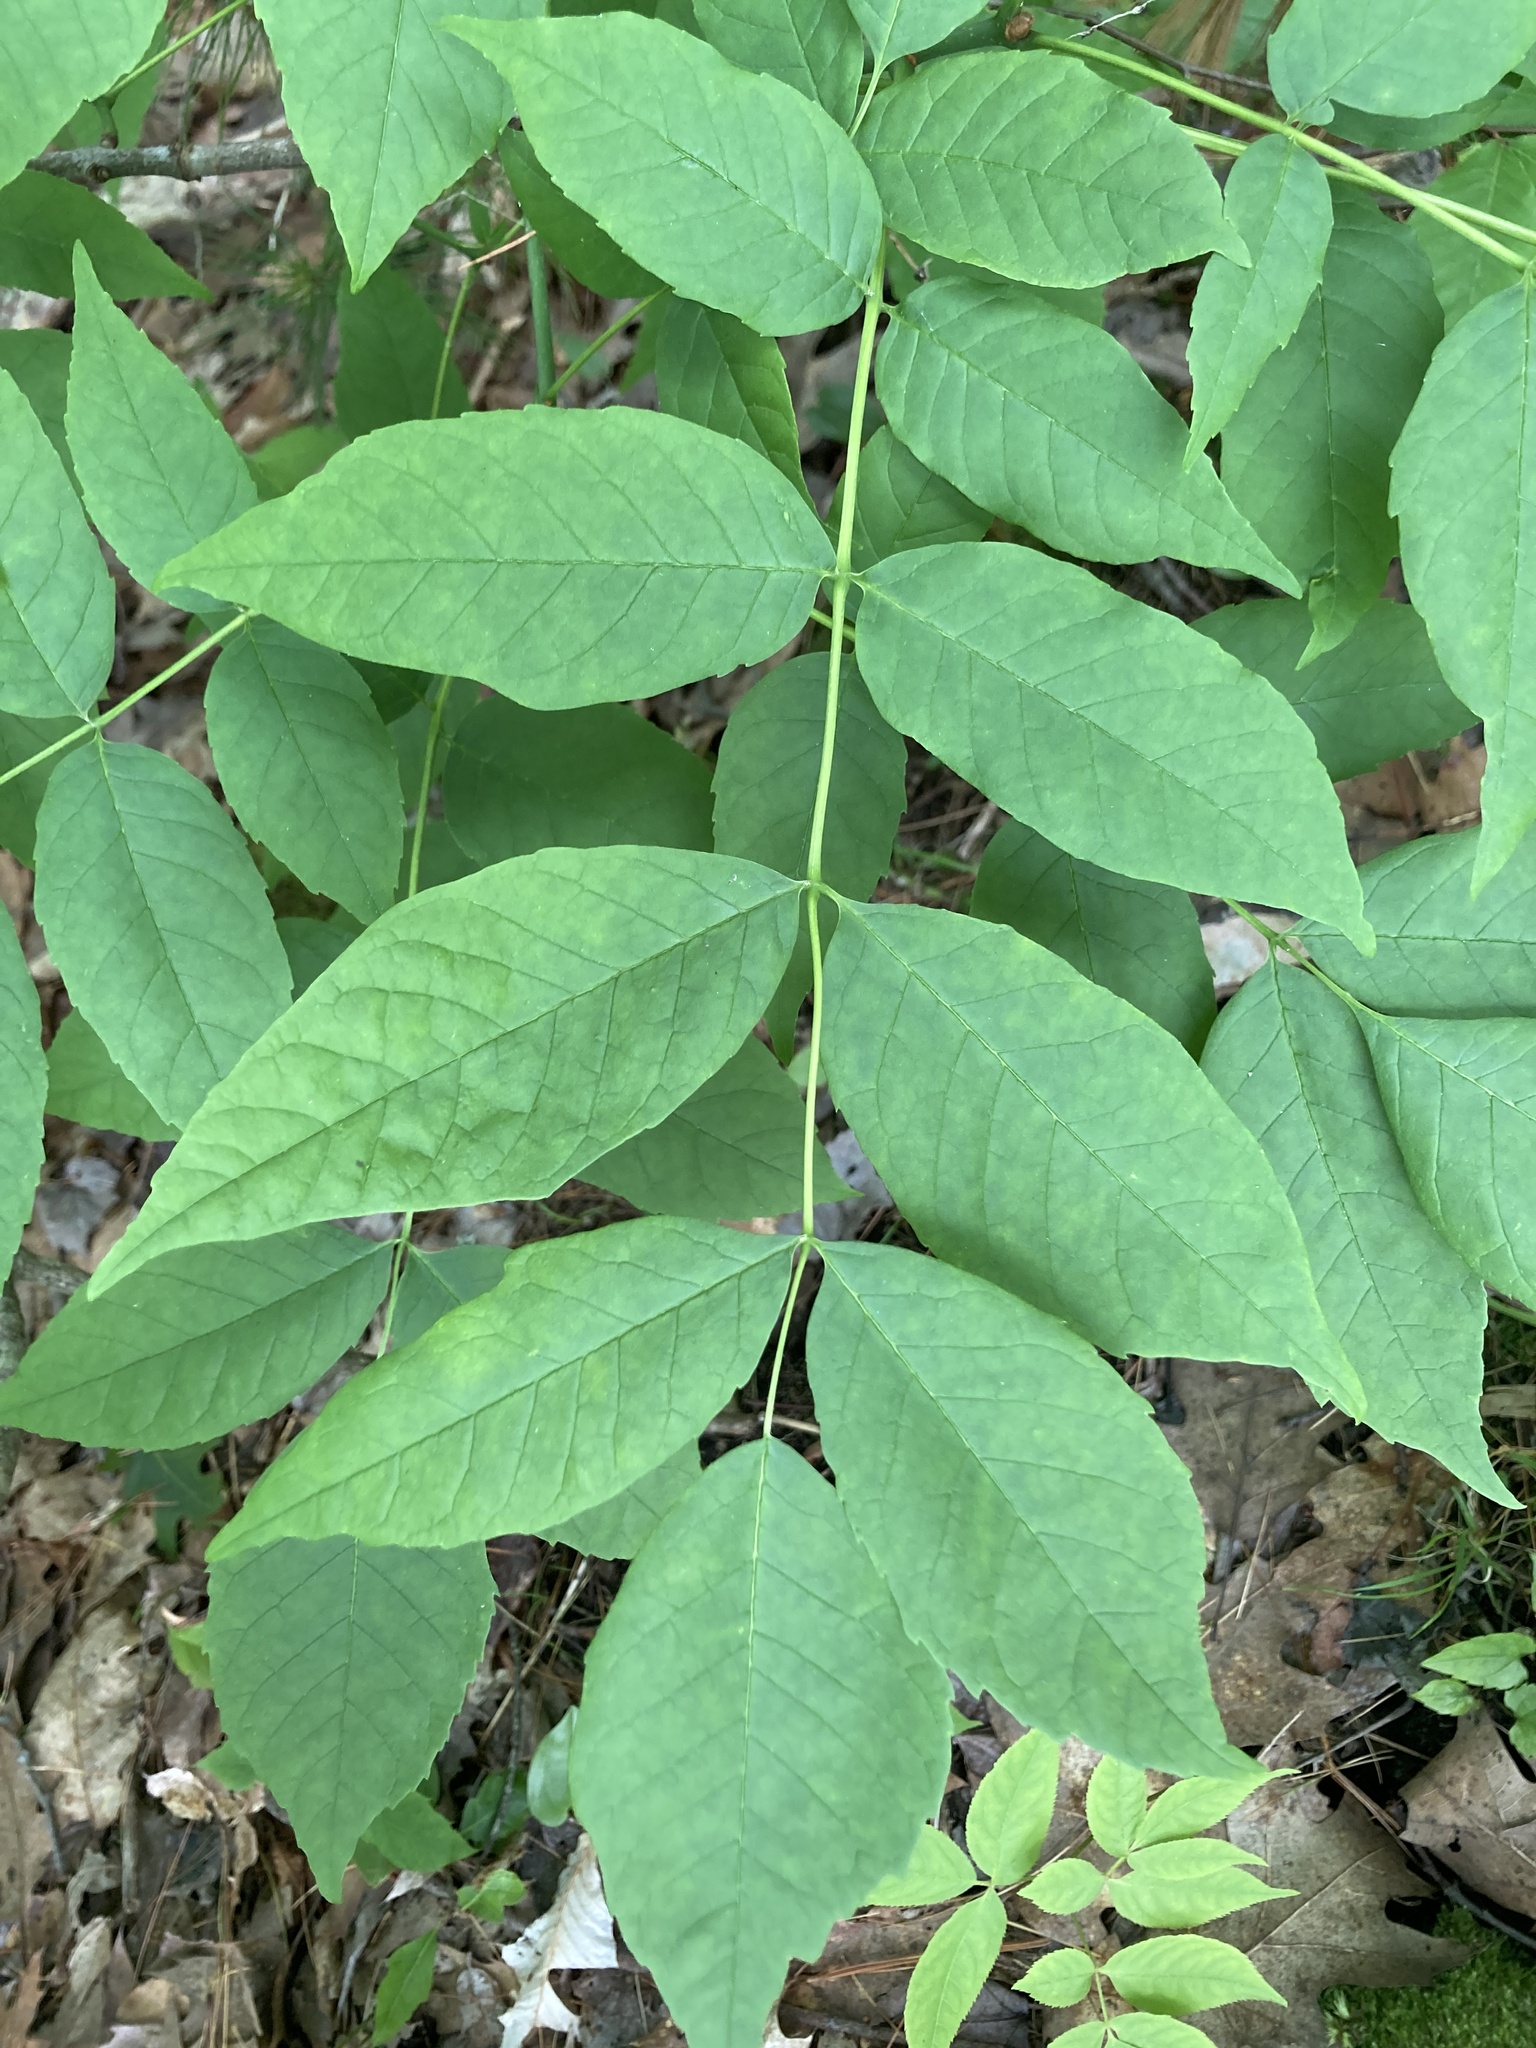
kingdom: Plantae
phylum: Tracheophyta
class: Magnoliopsida
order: Lamiales
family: Oleaceae
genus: Fraxinus
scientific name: Fraxinus americana
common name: White ash
